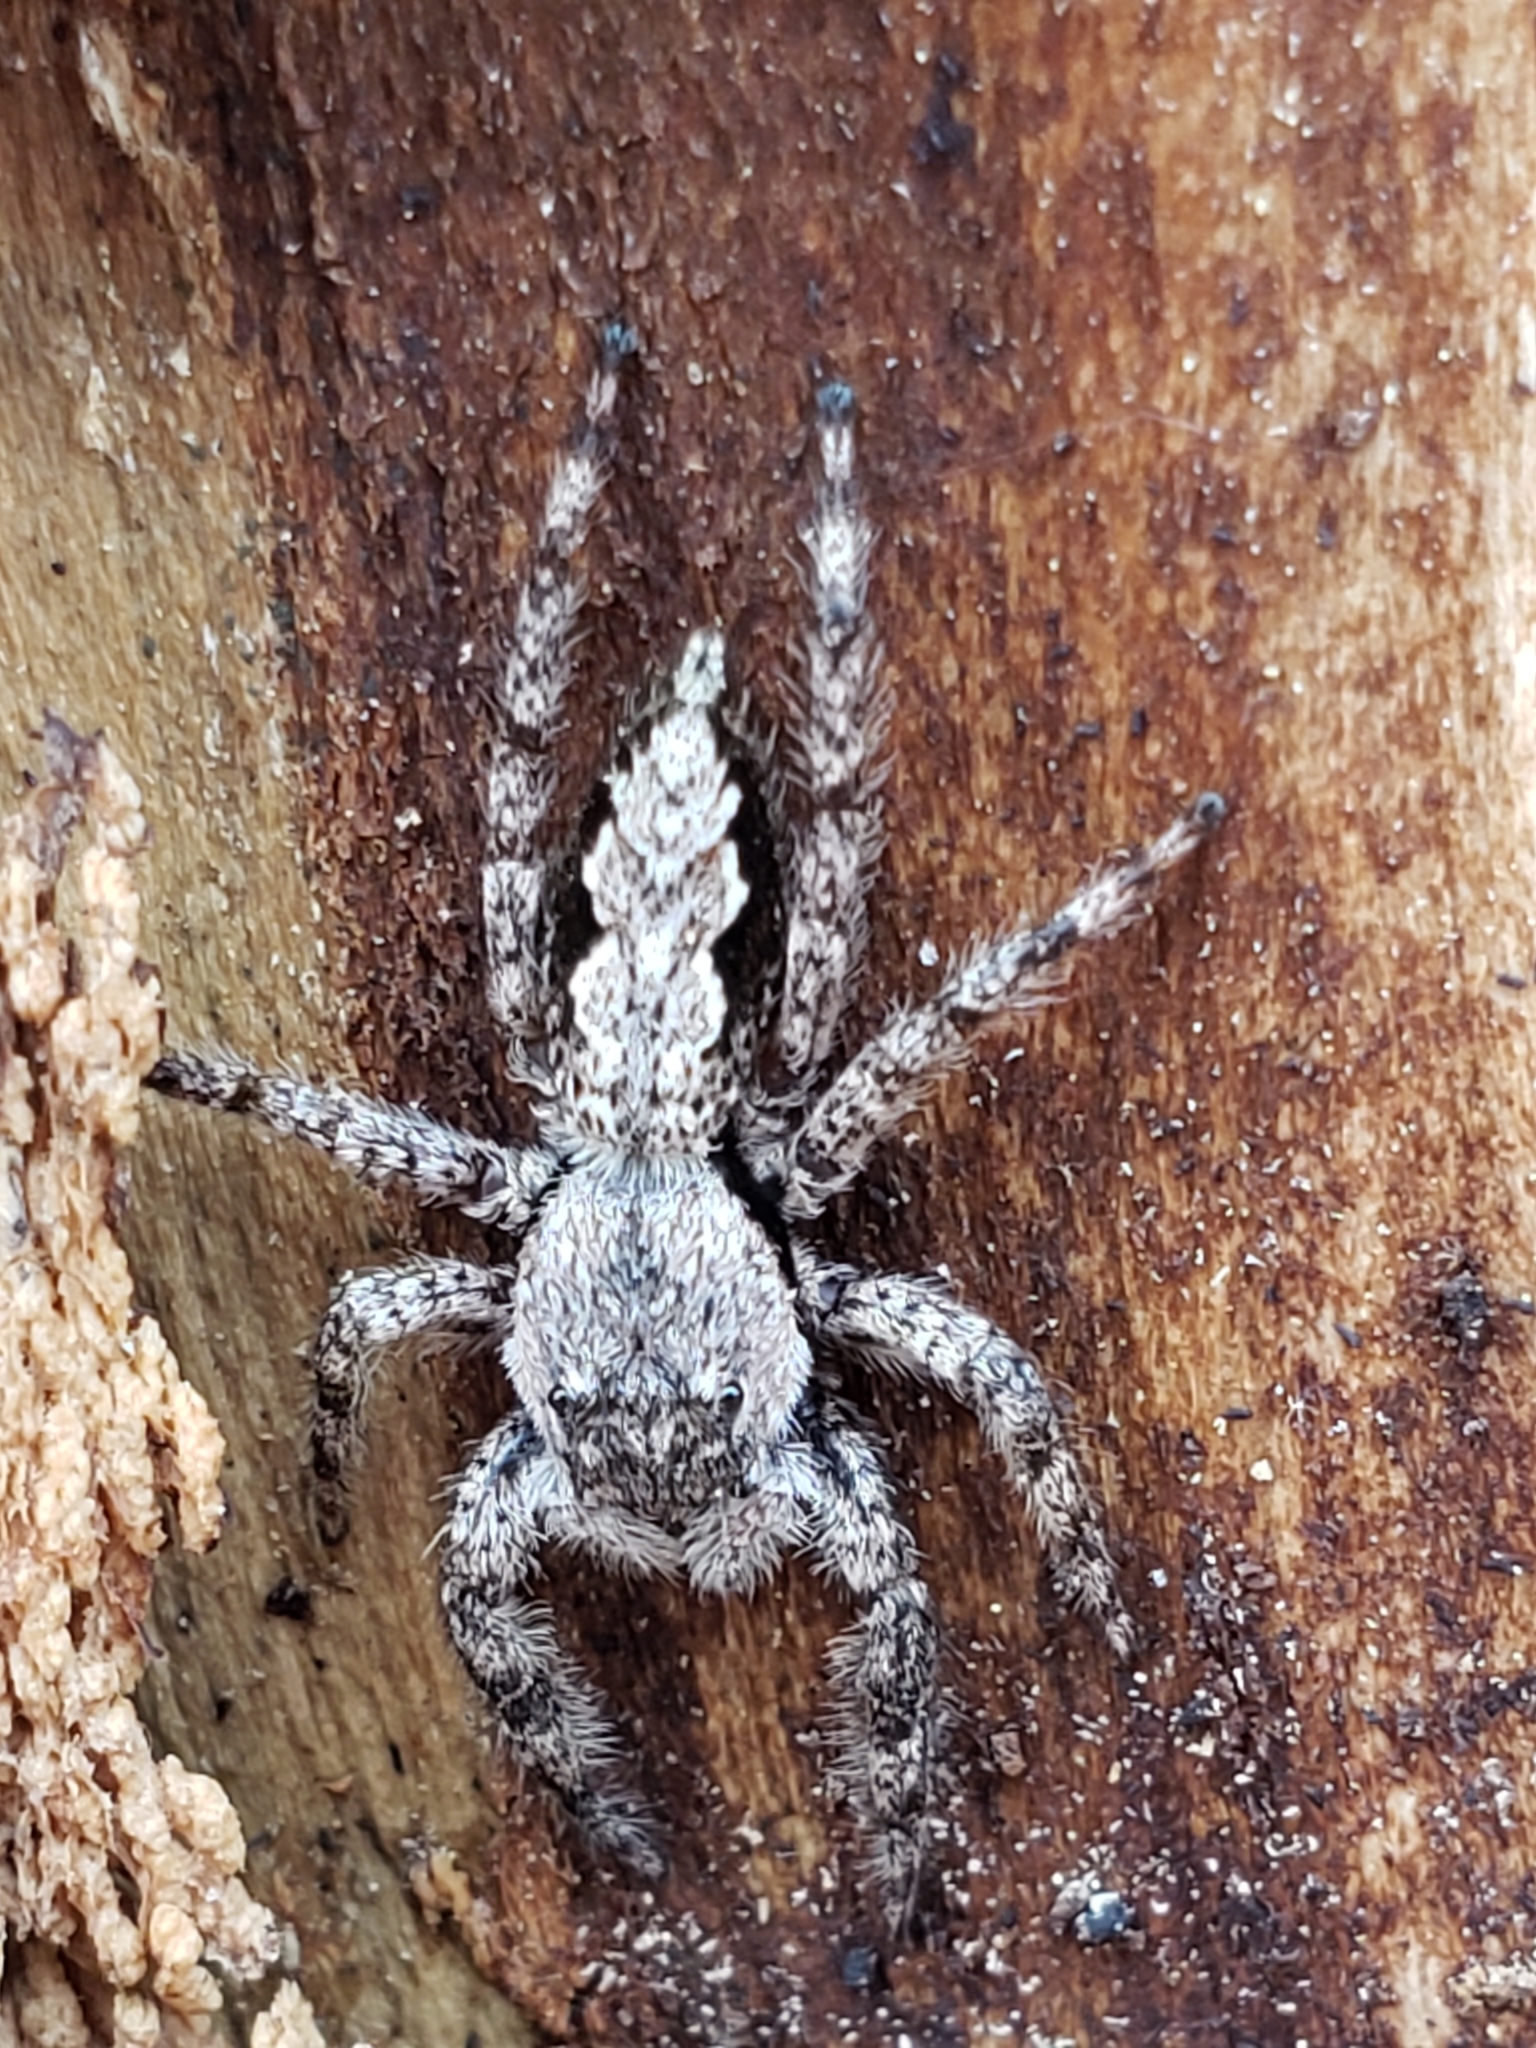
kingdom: Animalia
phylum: Arthropoda
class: Arachnida
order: Araneae
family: Salticidae
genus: Platycryptus
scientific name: Platycryptus undatus
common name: Tan jumping spider
